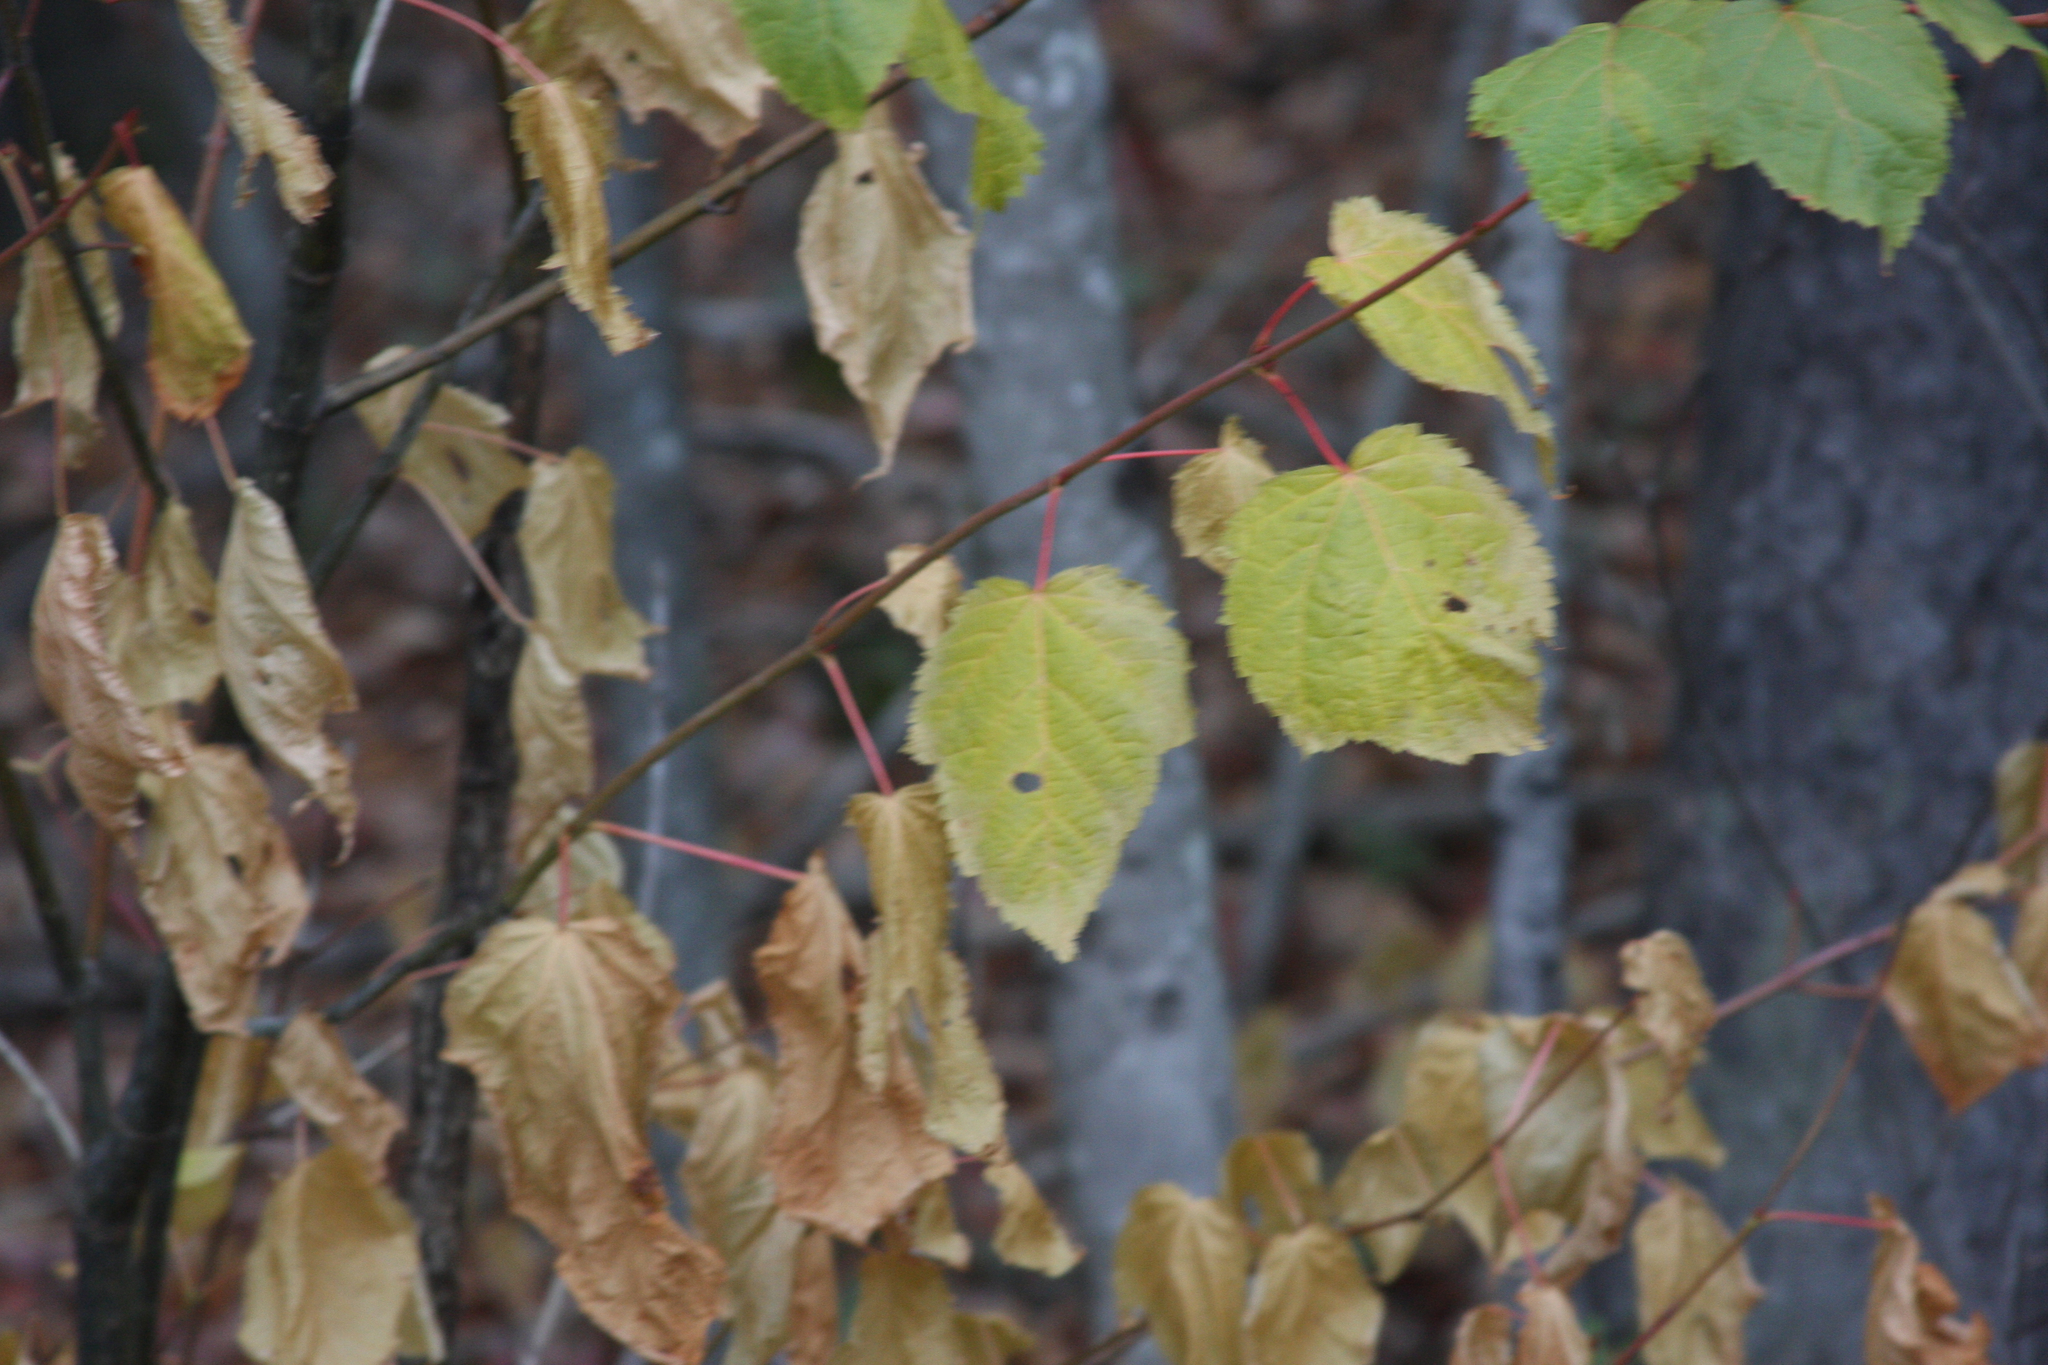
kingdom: Plantae
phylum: Tracheophyta
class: Magnoliopsida
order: Sapindales
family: Sapindaceae
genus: Acer
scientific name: Acer pensylvanicum
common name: Moosewood
